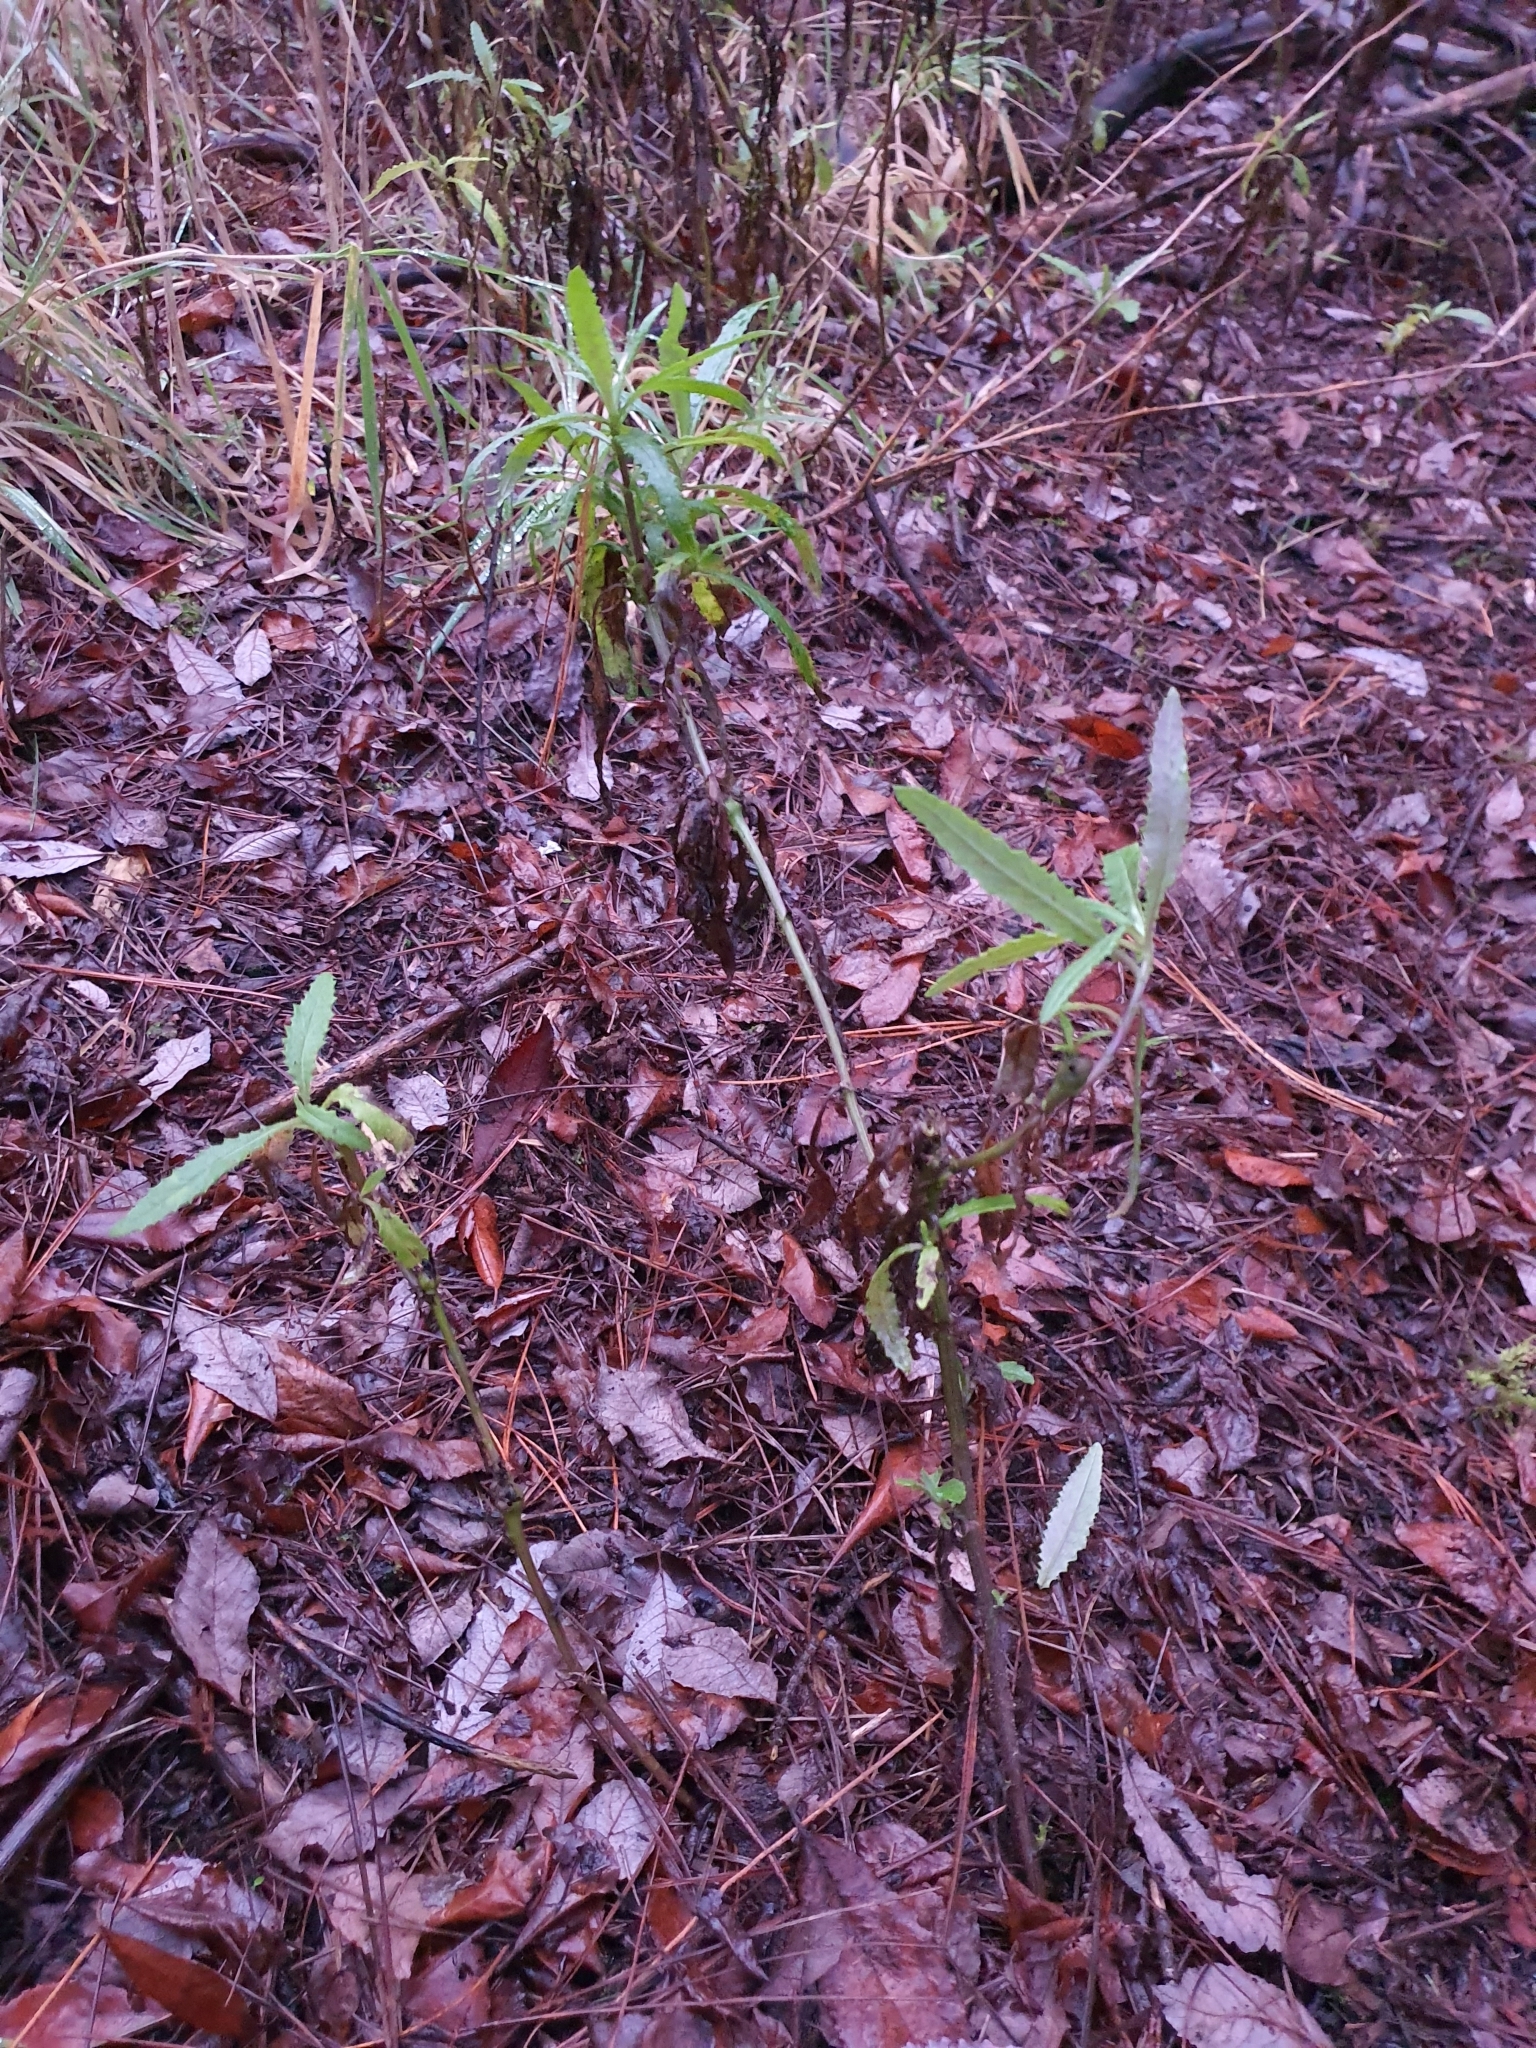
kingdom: Plantae
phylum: Tracheophyta
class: Magnoliopsida
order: Asterales
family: Asteraceae
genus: Senecio
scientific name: Senecio minimus
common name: Toothed fireweed
